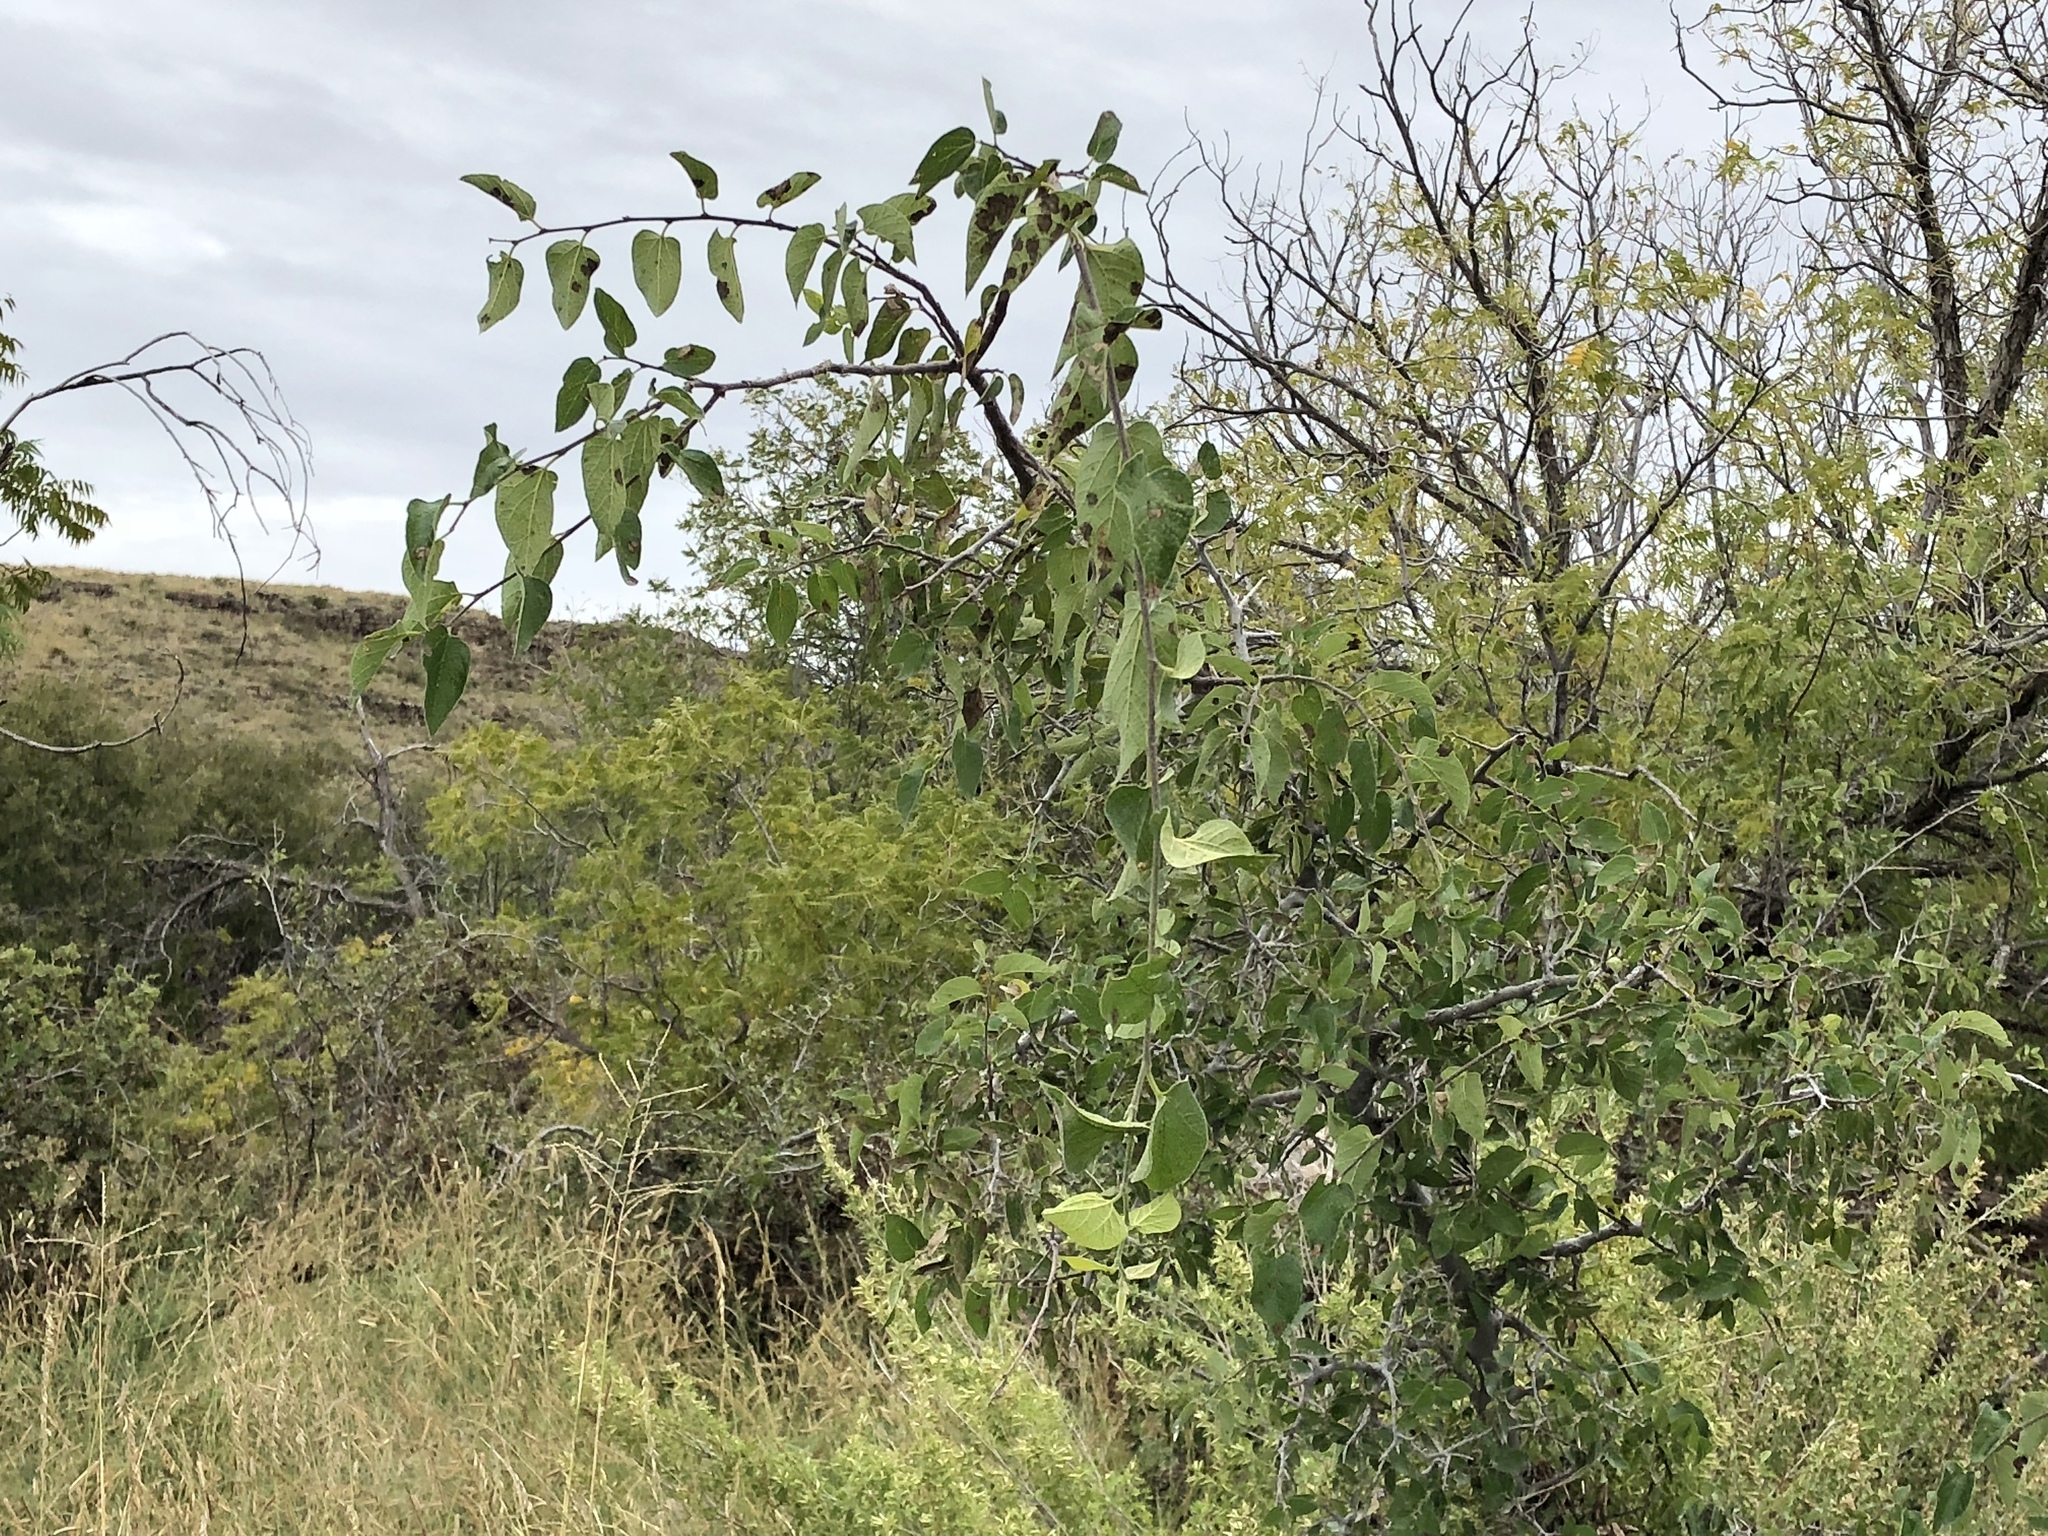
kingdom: Plantae
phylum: Tracheophyta
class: Magnoliopsida
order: Rosales
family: Cannabaceae
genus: Celtis
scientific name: Celtis reticulata
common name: Netleaf hackberry
